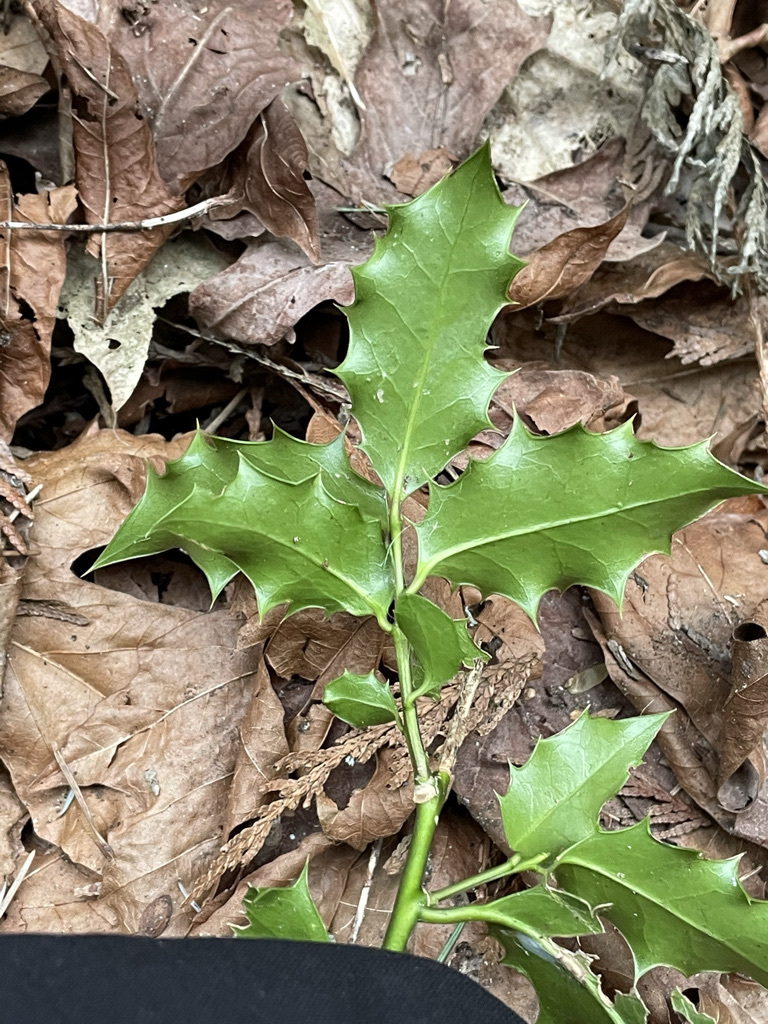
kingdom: Plantae
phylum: Tracheophyta
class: Magnoliopsida
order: Aquifoliales
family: Aquifoliaceae
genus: Ilex
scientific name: Ilex aquifolium
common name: English holly
